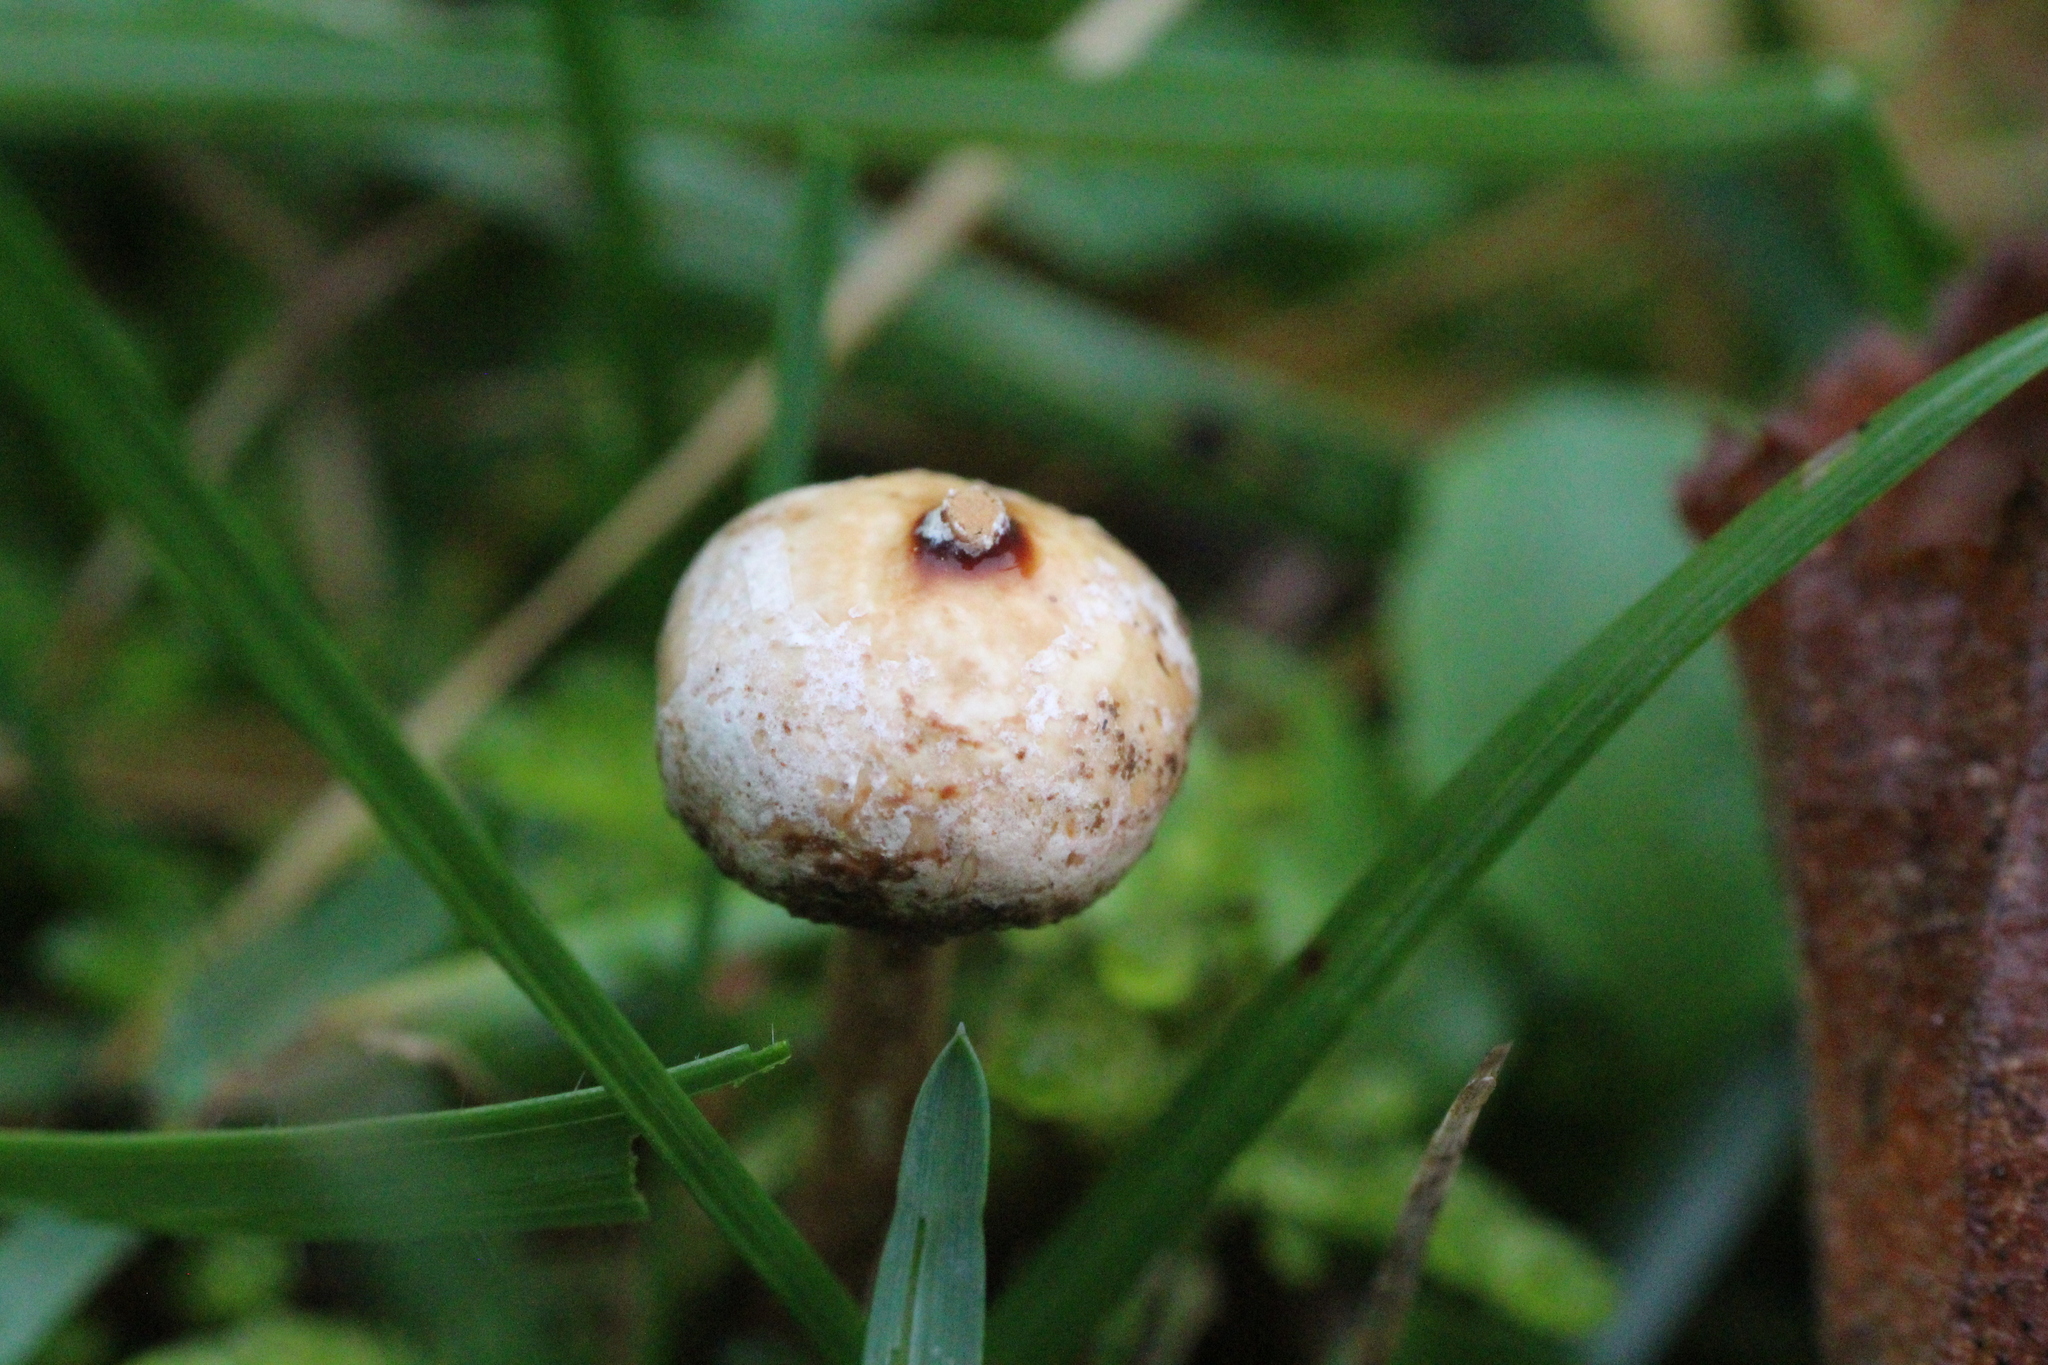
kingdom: Fungi
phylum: Basidiomycota
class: Agaricomycetes
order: Agaricales
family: Agaricaceae
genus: Tulostoma
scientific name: Tulostoma brumale
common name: Winter stalk puffball
